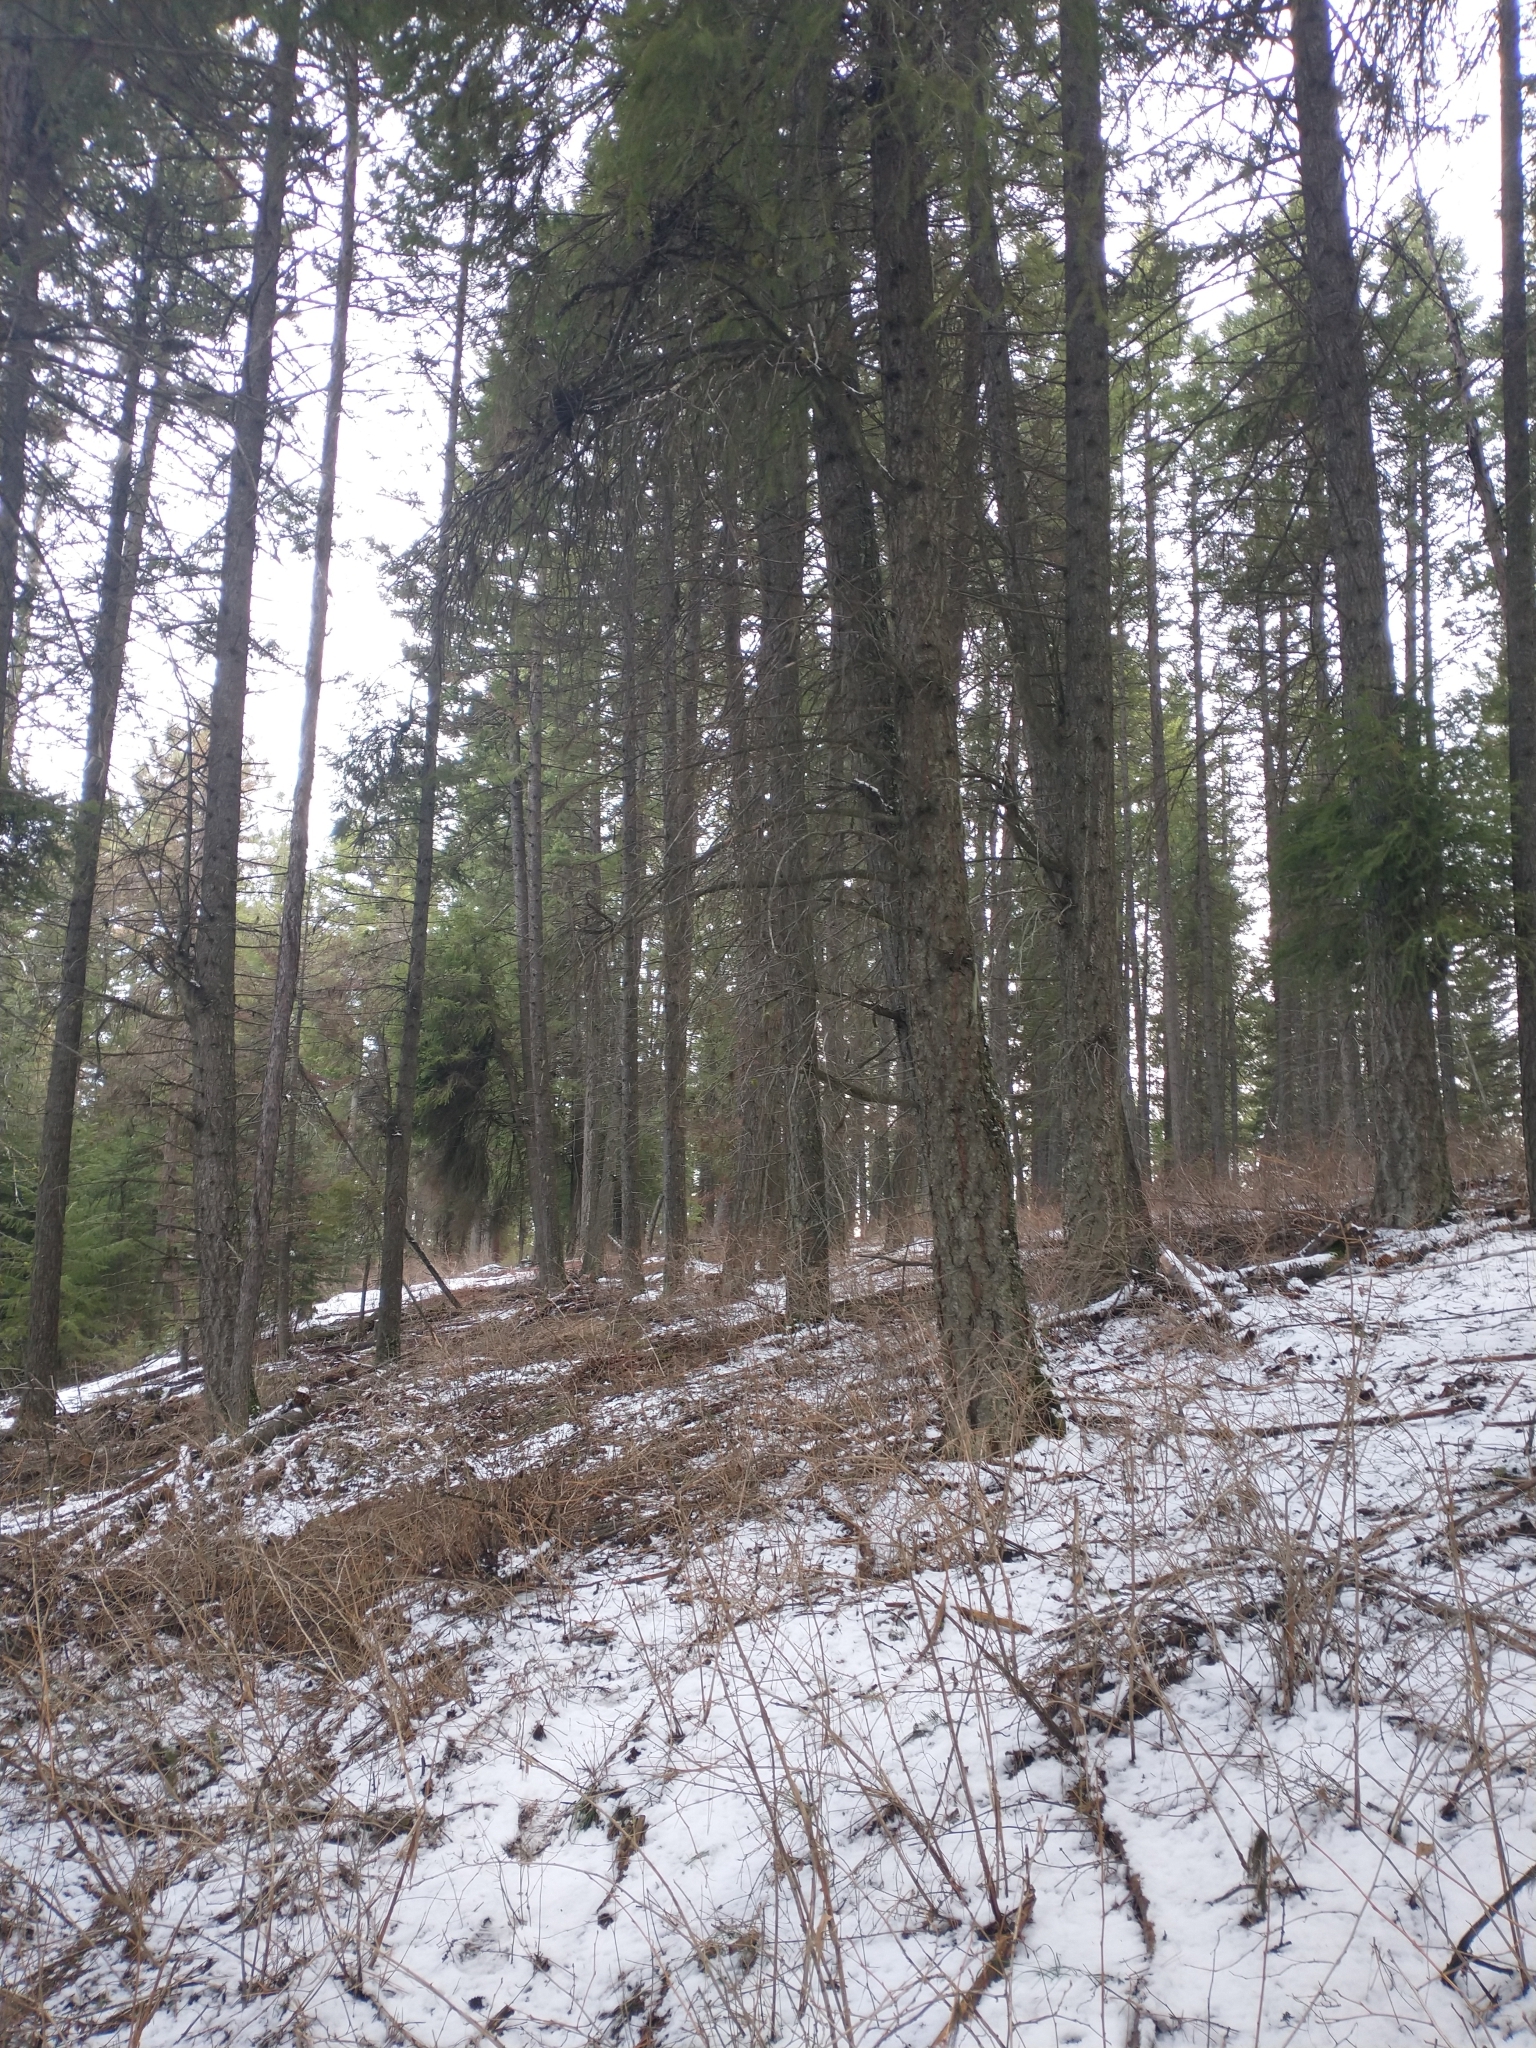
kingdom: Plantae
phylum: Tracheophyta
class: Pinopsida
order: Pinales
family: Pinaceae
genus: Pseudotsuga
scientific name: Pseudotsuga menziesii
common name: Douglas fir
